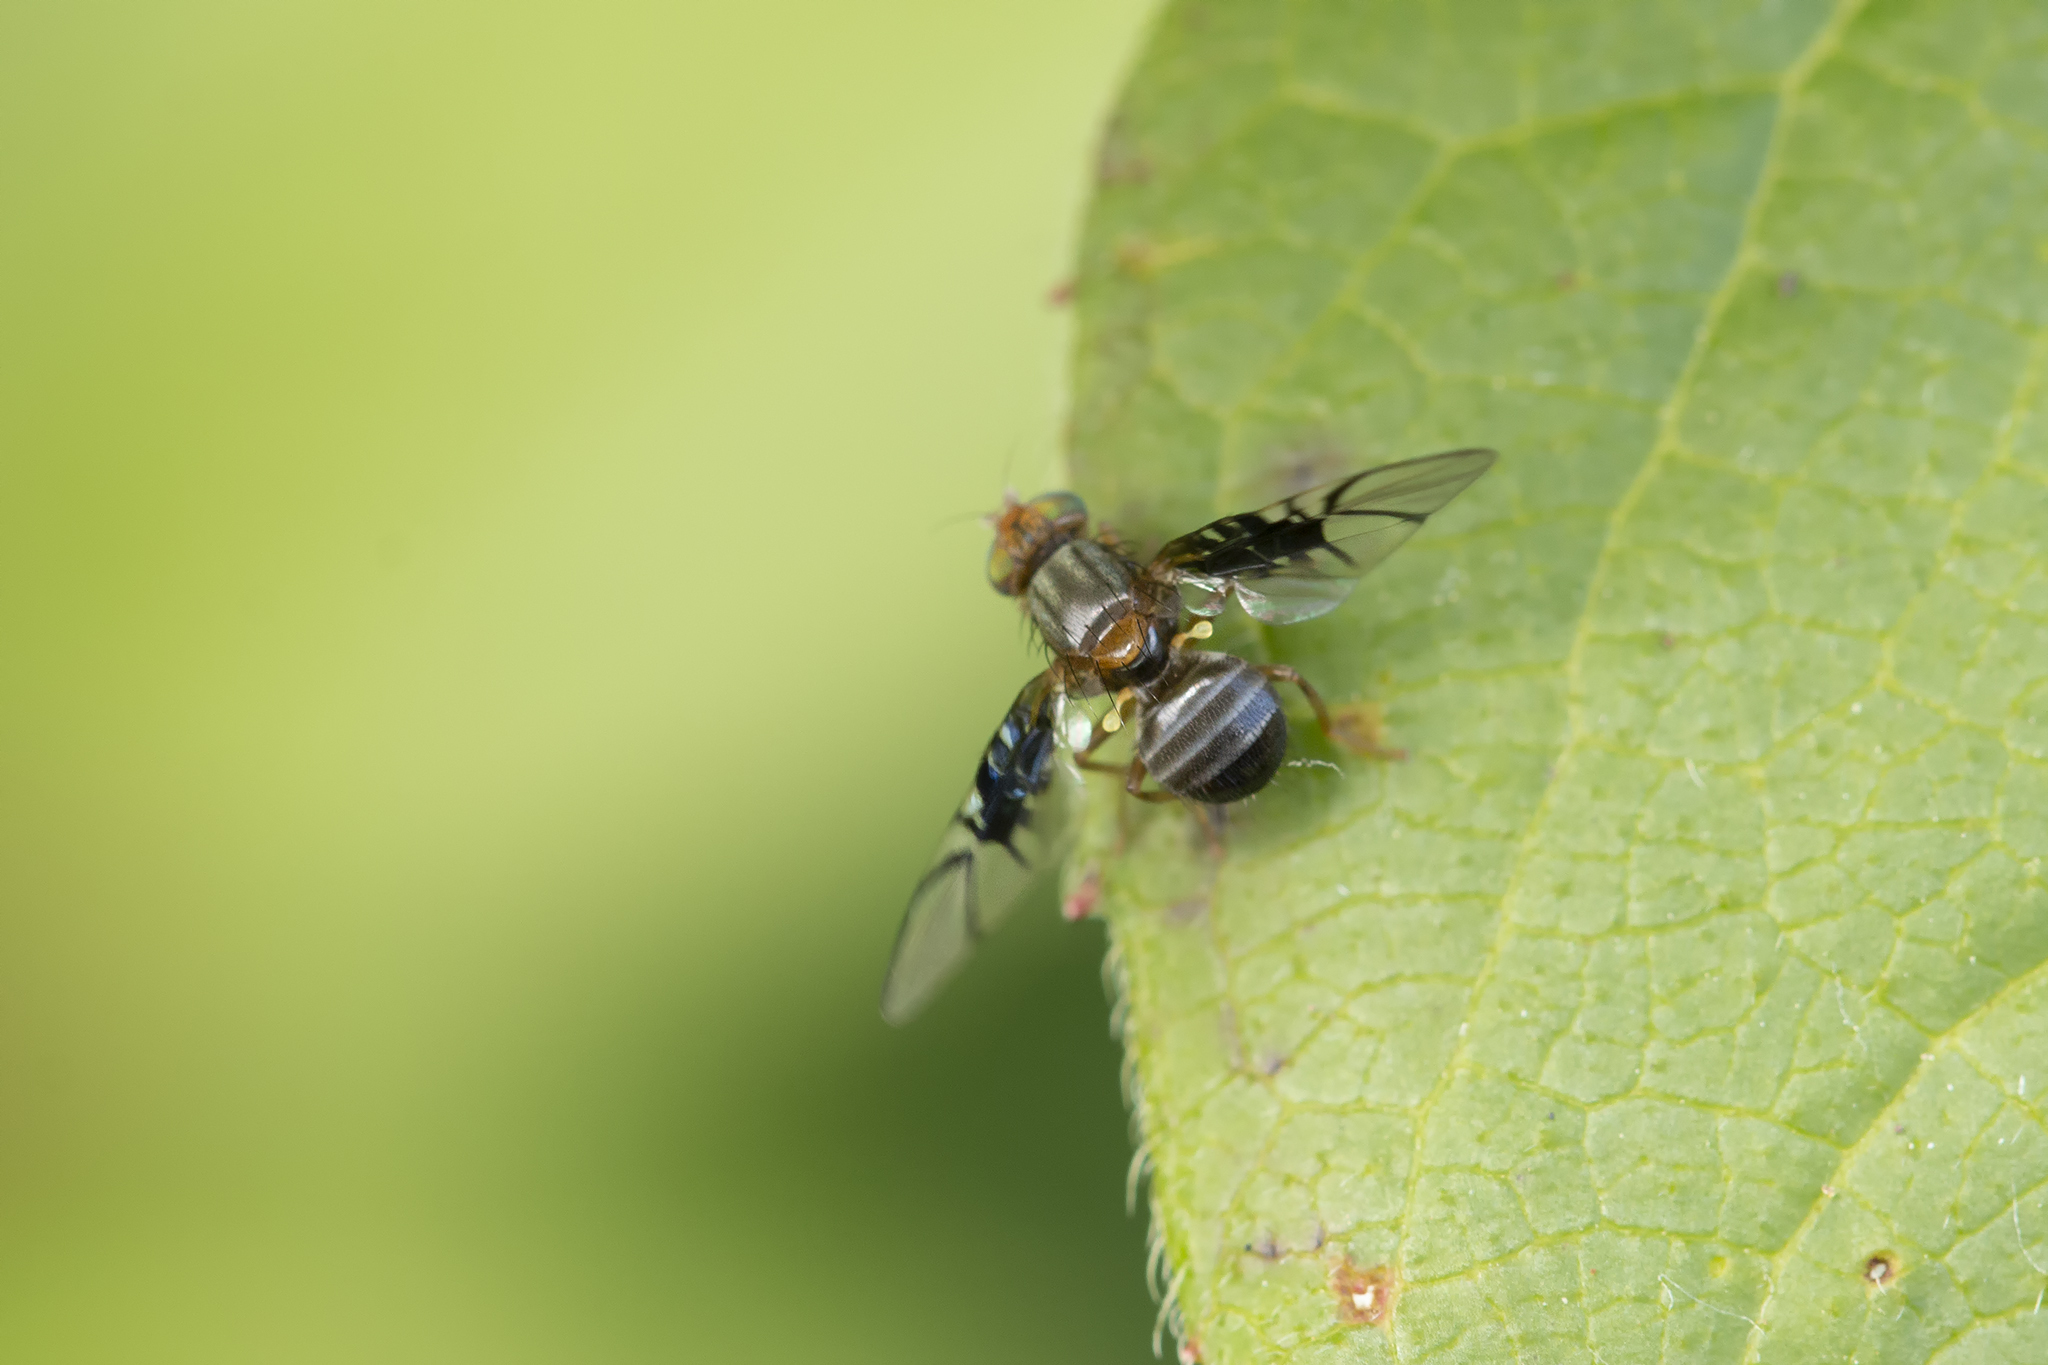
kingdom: Animalia
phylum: Arthropoda
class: Insecta
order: Diptera
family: Tephritidae
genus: Anomoia
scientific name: Anomoia purmunda
